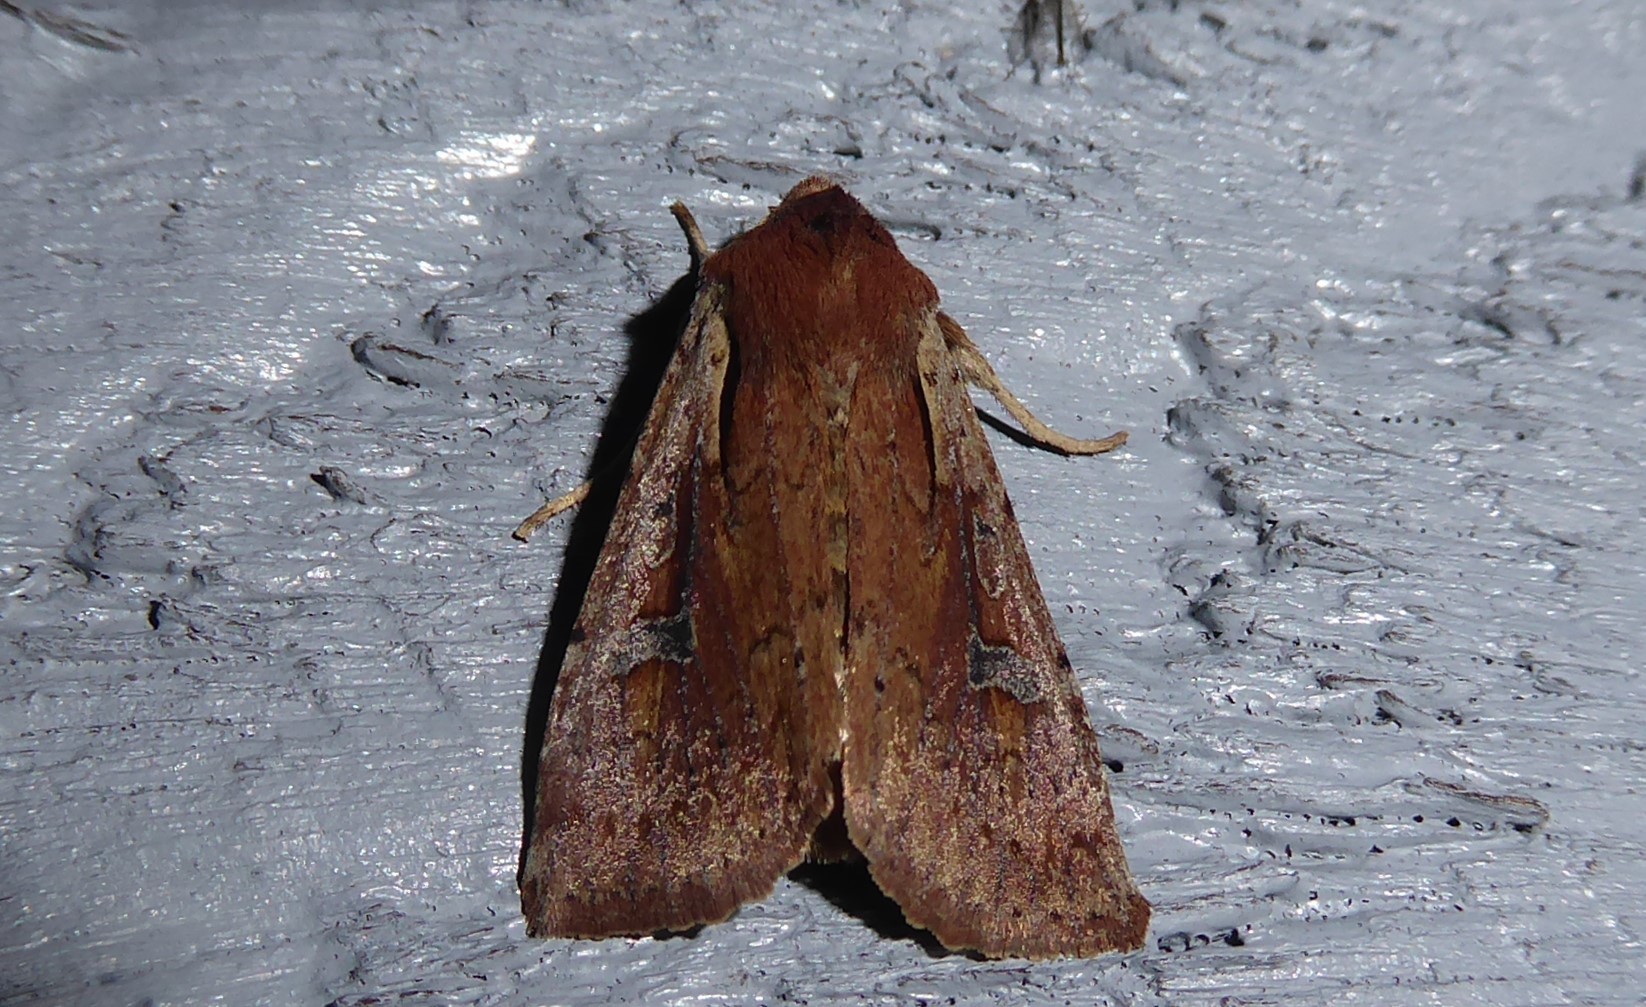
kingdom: Animalia
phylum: Arthropoda
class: Insecta
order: Lepidoptera
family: Noctuidae
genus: Ichneutica
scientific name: Ichneutica atristriga
